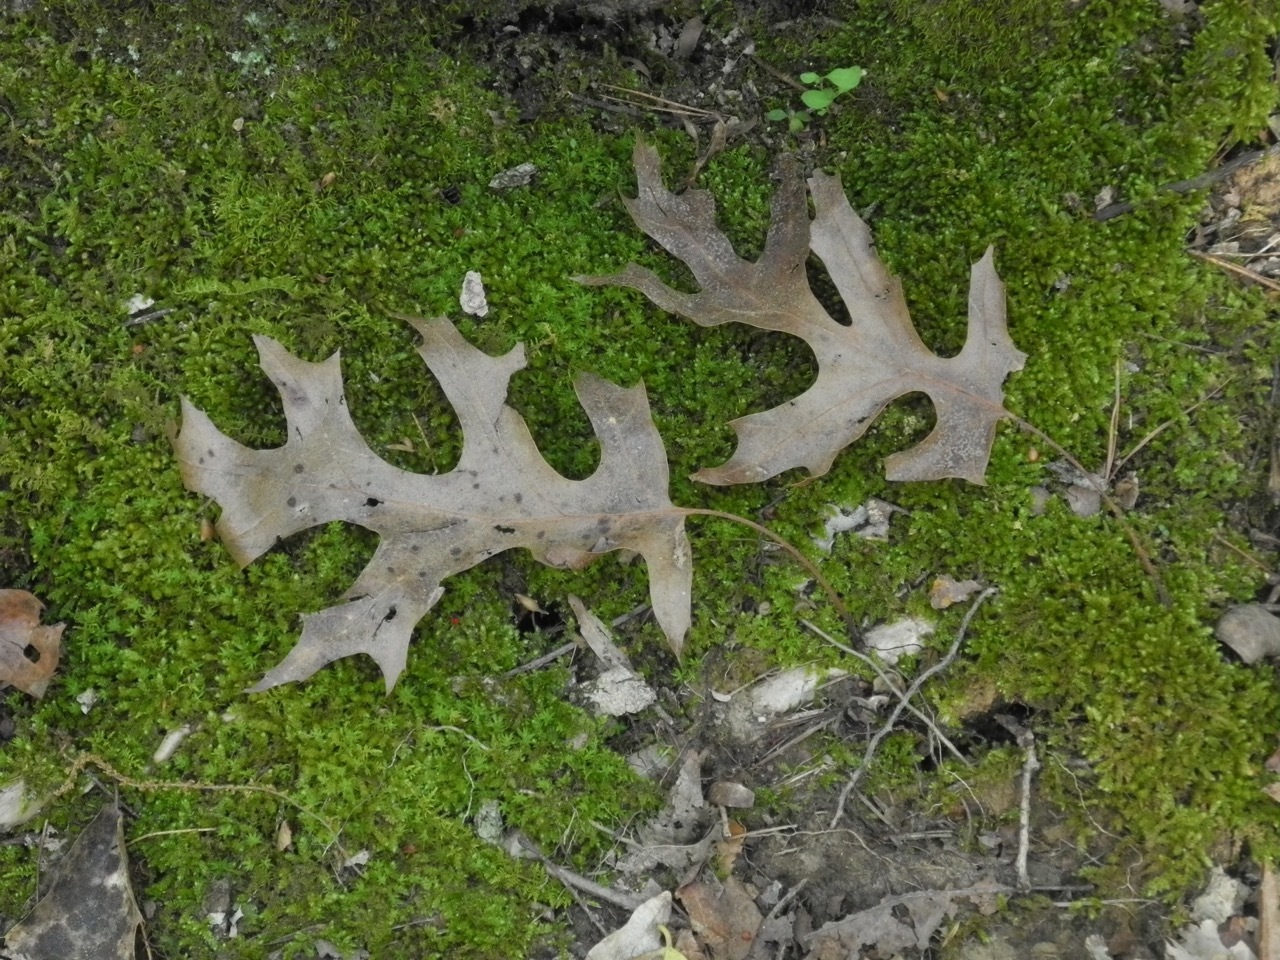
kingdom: Plantae
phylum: Tracheophyta
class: Magnoliopsida
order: Fagales
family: Fagaceae
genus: Quercus
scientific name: Quercus coccinea
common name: Scarlet oak
